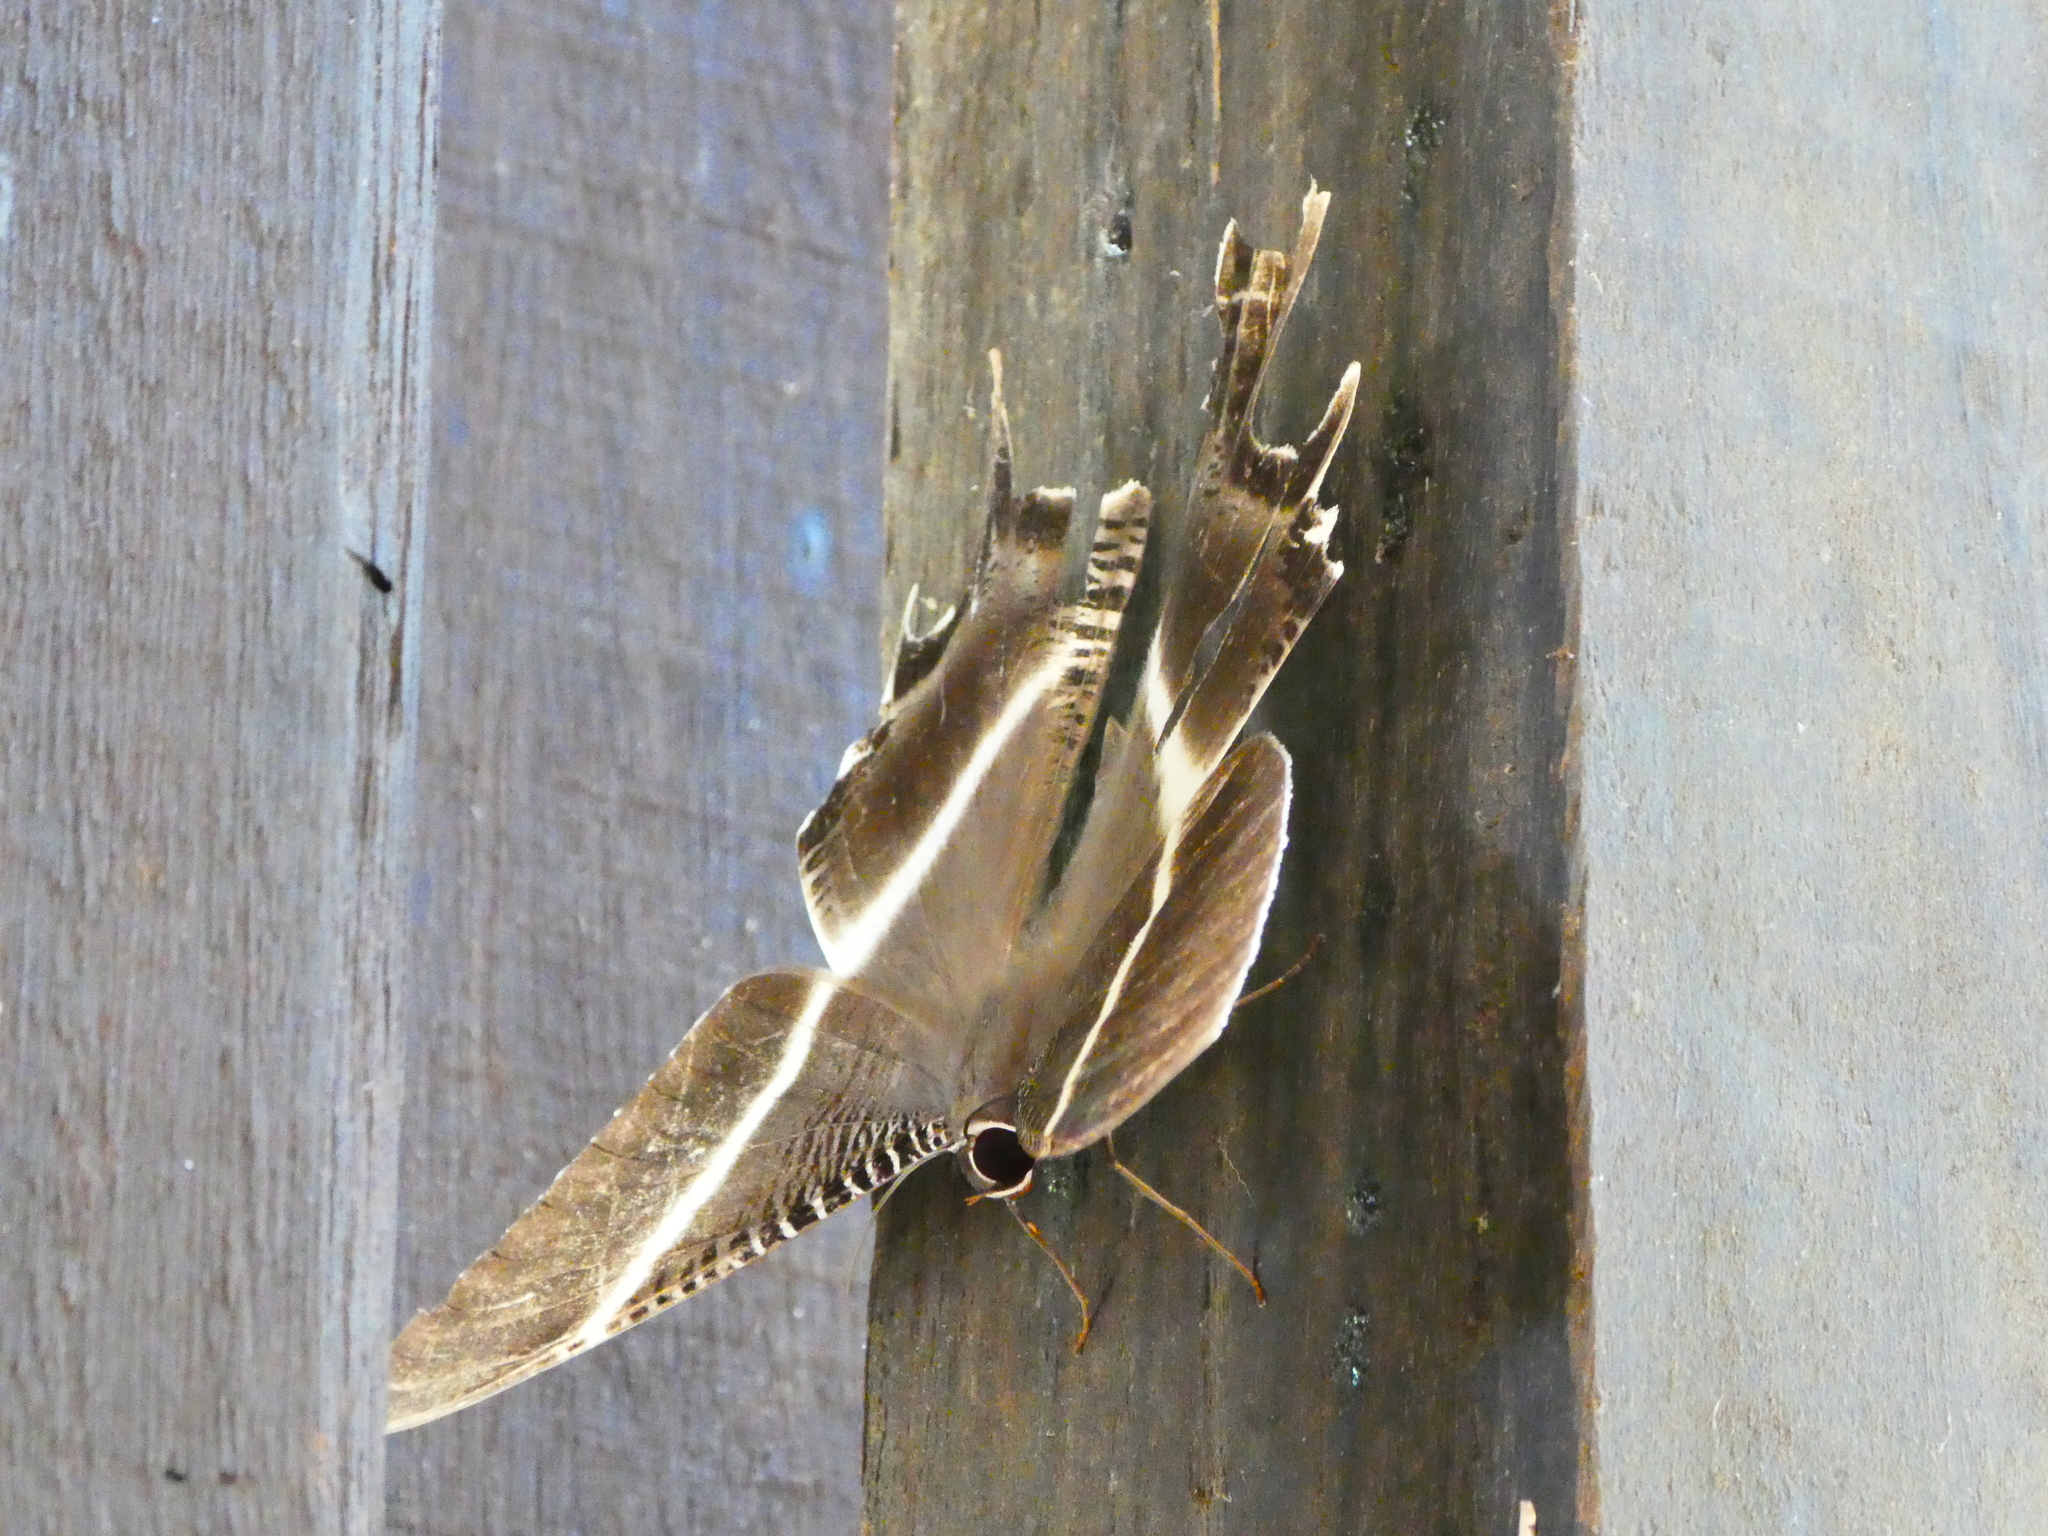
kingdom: Animalia
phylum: Arthropoda
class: Insecta
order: Lepidoptera
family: Uraniidae
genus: Lyssa
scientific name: Lyssa menoetius
